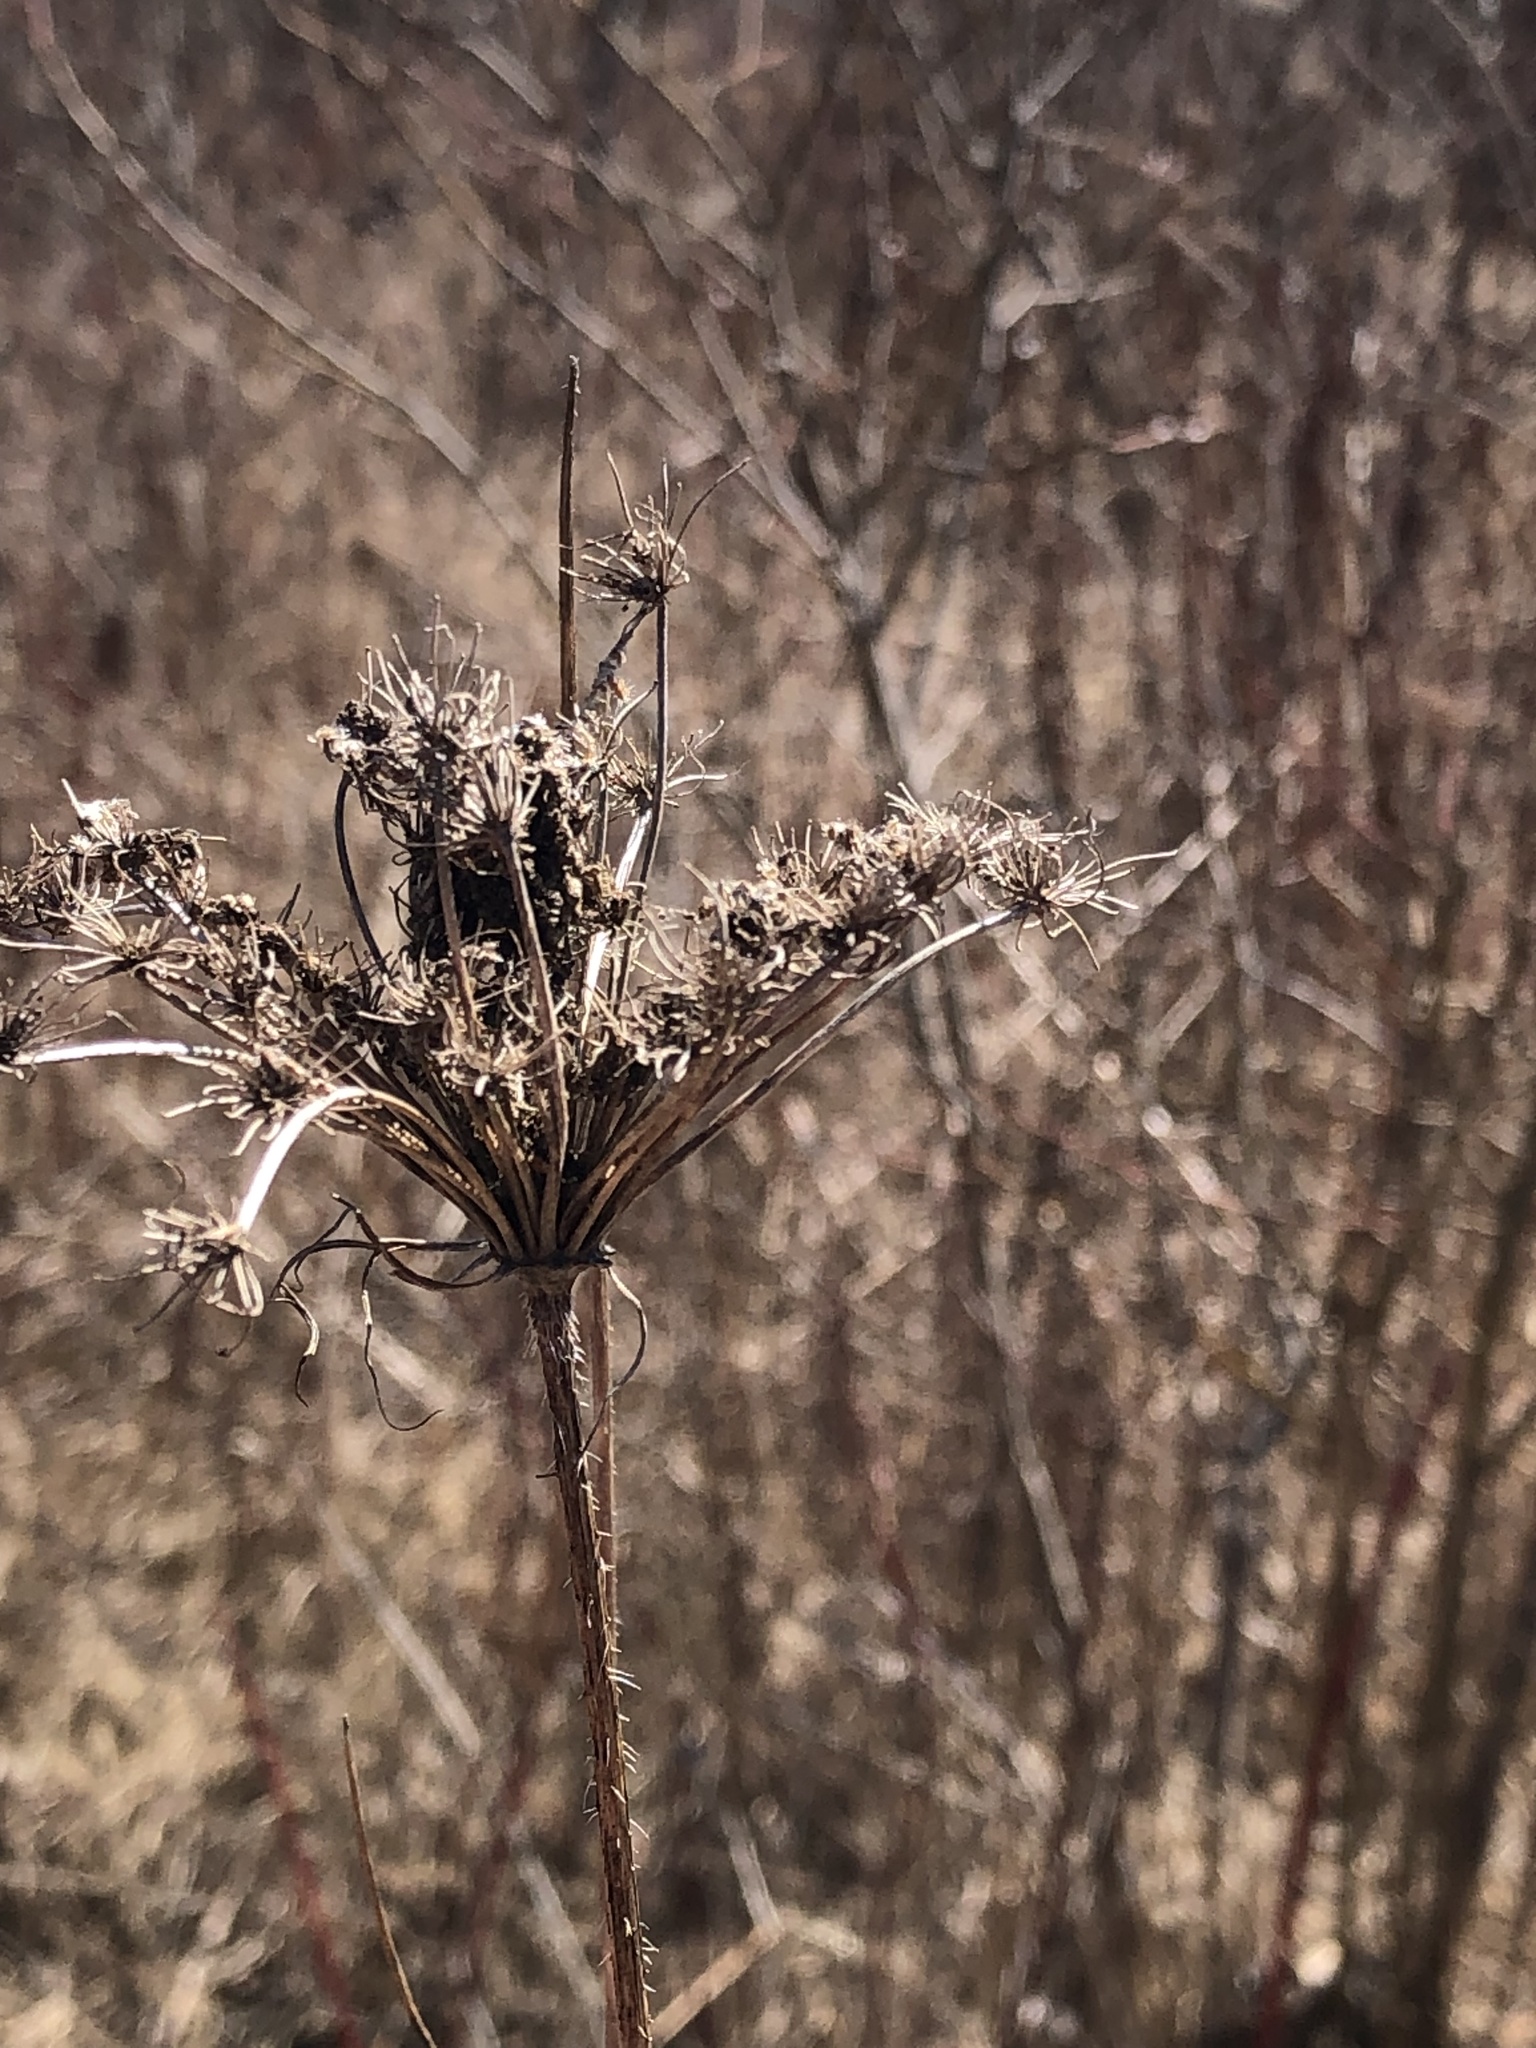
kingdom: Plantae
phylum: Tracheophyta
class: Magnoliopsida
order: Apiales
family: Apiaceae
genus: Daucus
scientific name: Daucus carota
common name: Wild carrot
